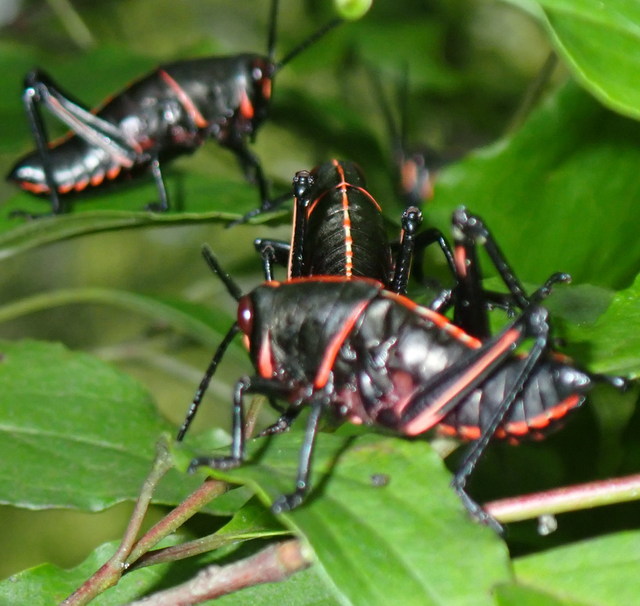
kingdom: Animalia
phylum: Arthropoda
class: Insecta
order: Orthoptera
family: Romaleidae
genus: Romalea
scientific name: Romalea microptera
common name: Eastern lubber grasshopper
